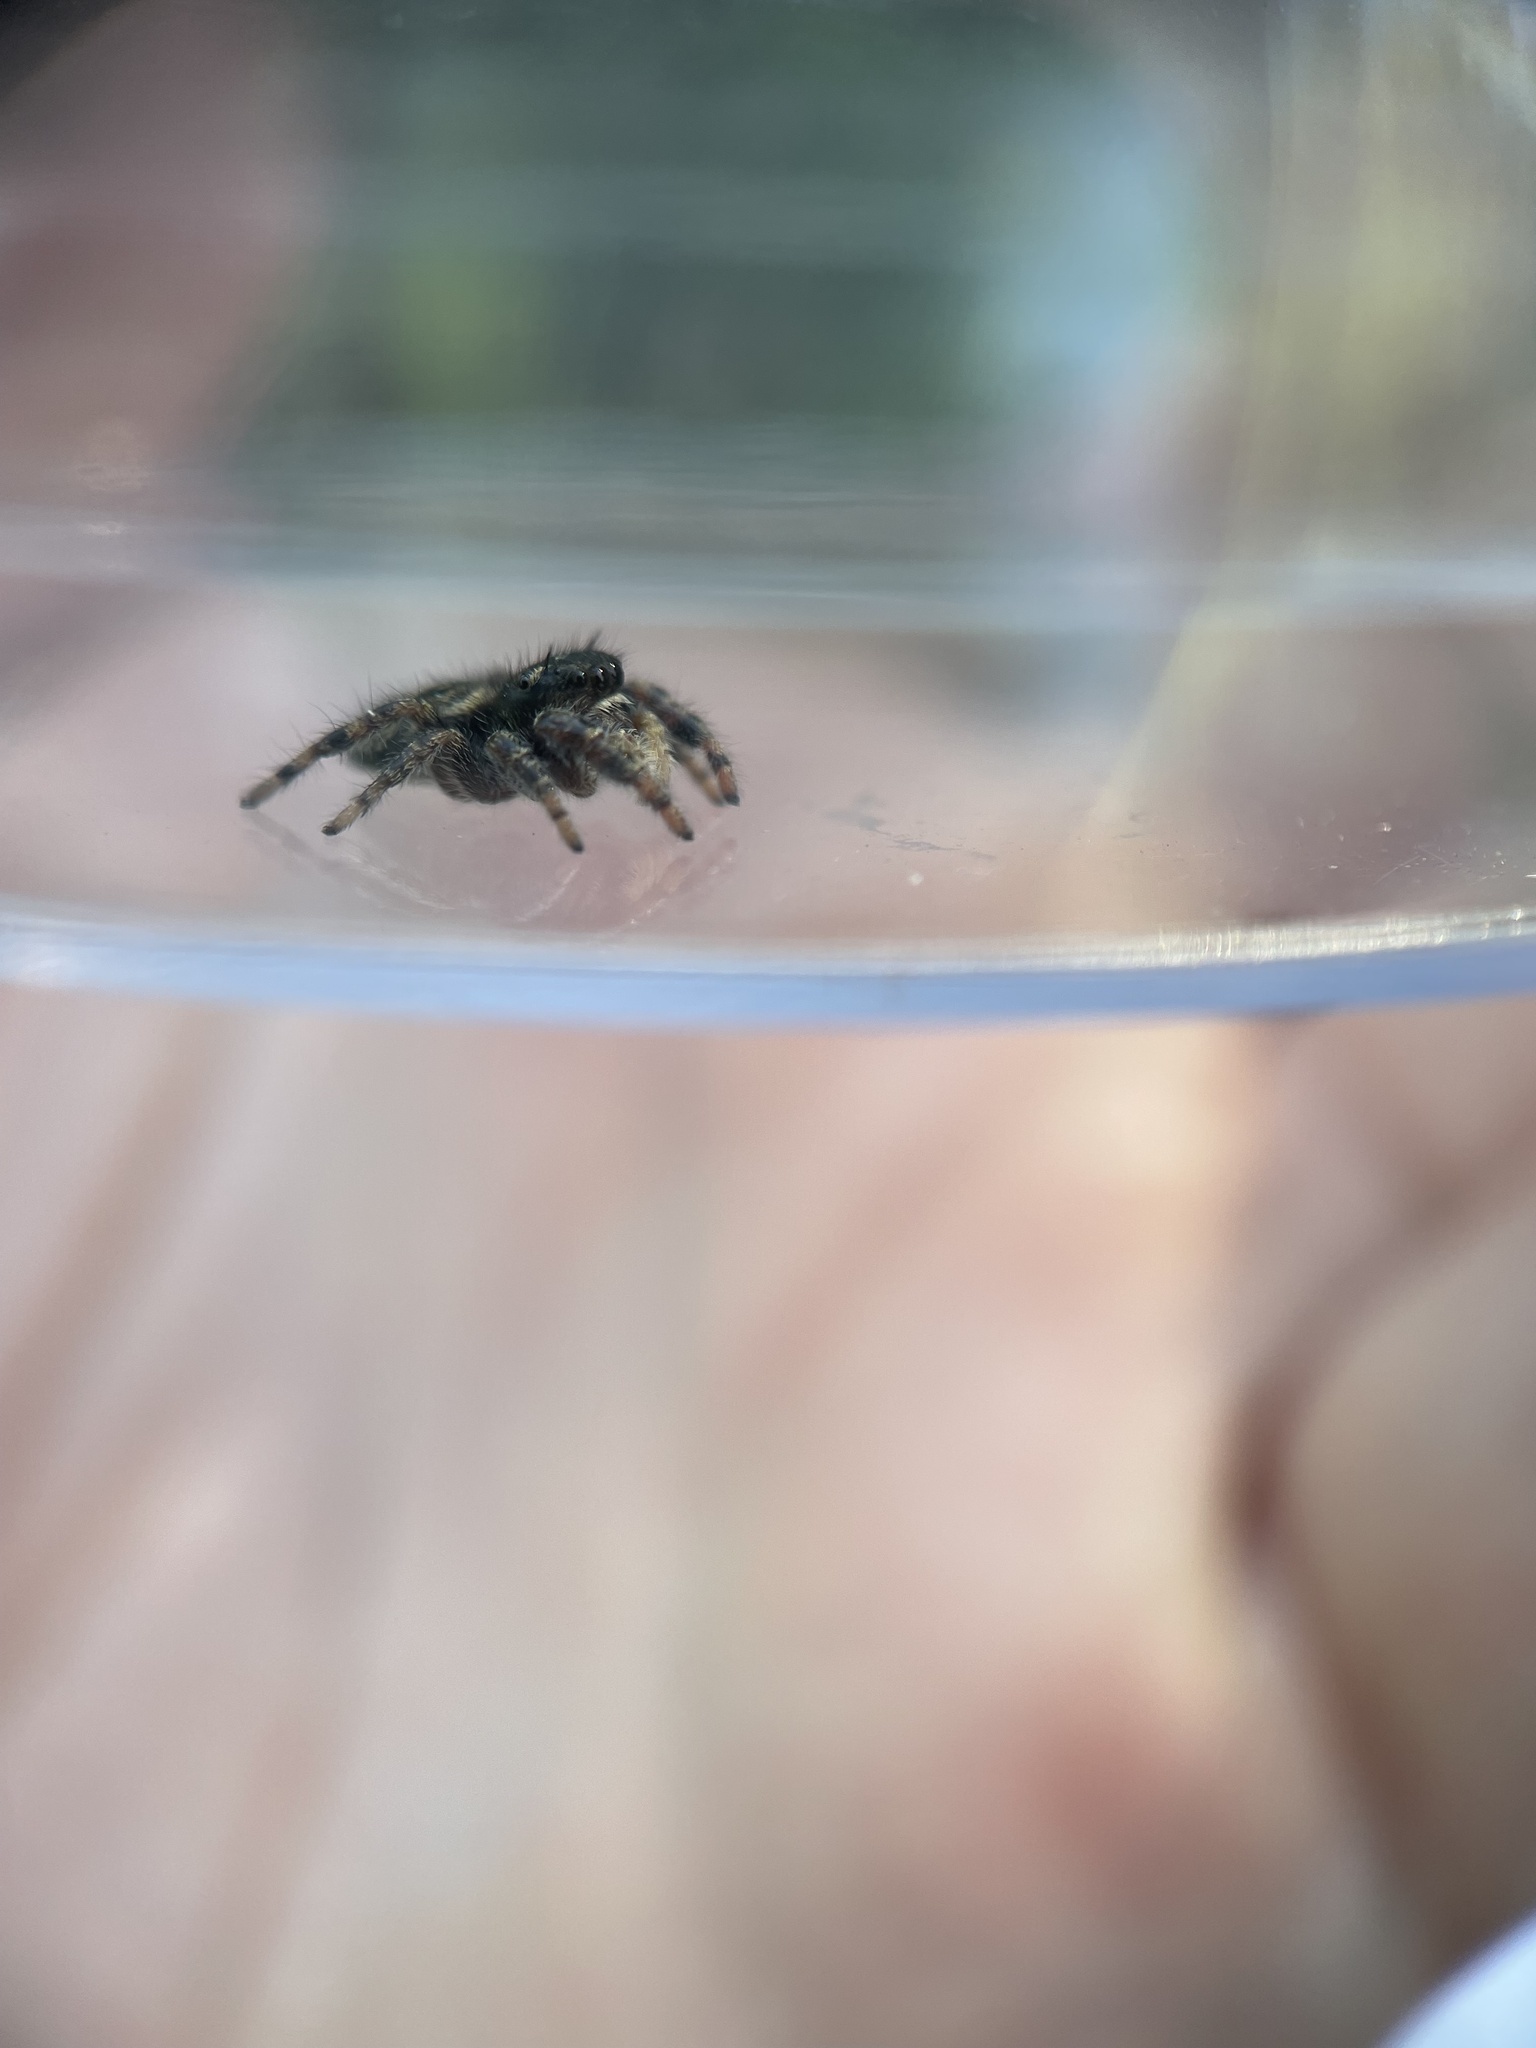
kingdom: Animalia
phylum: Arthropoda
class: Arachnida
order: Araneae
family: Salticidae
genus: Phidippus
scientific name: Phidippus texanus
